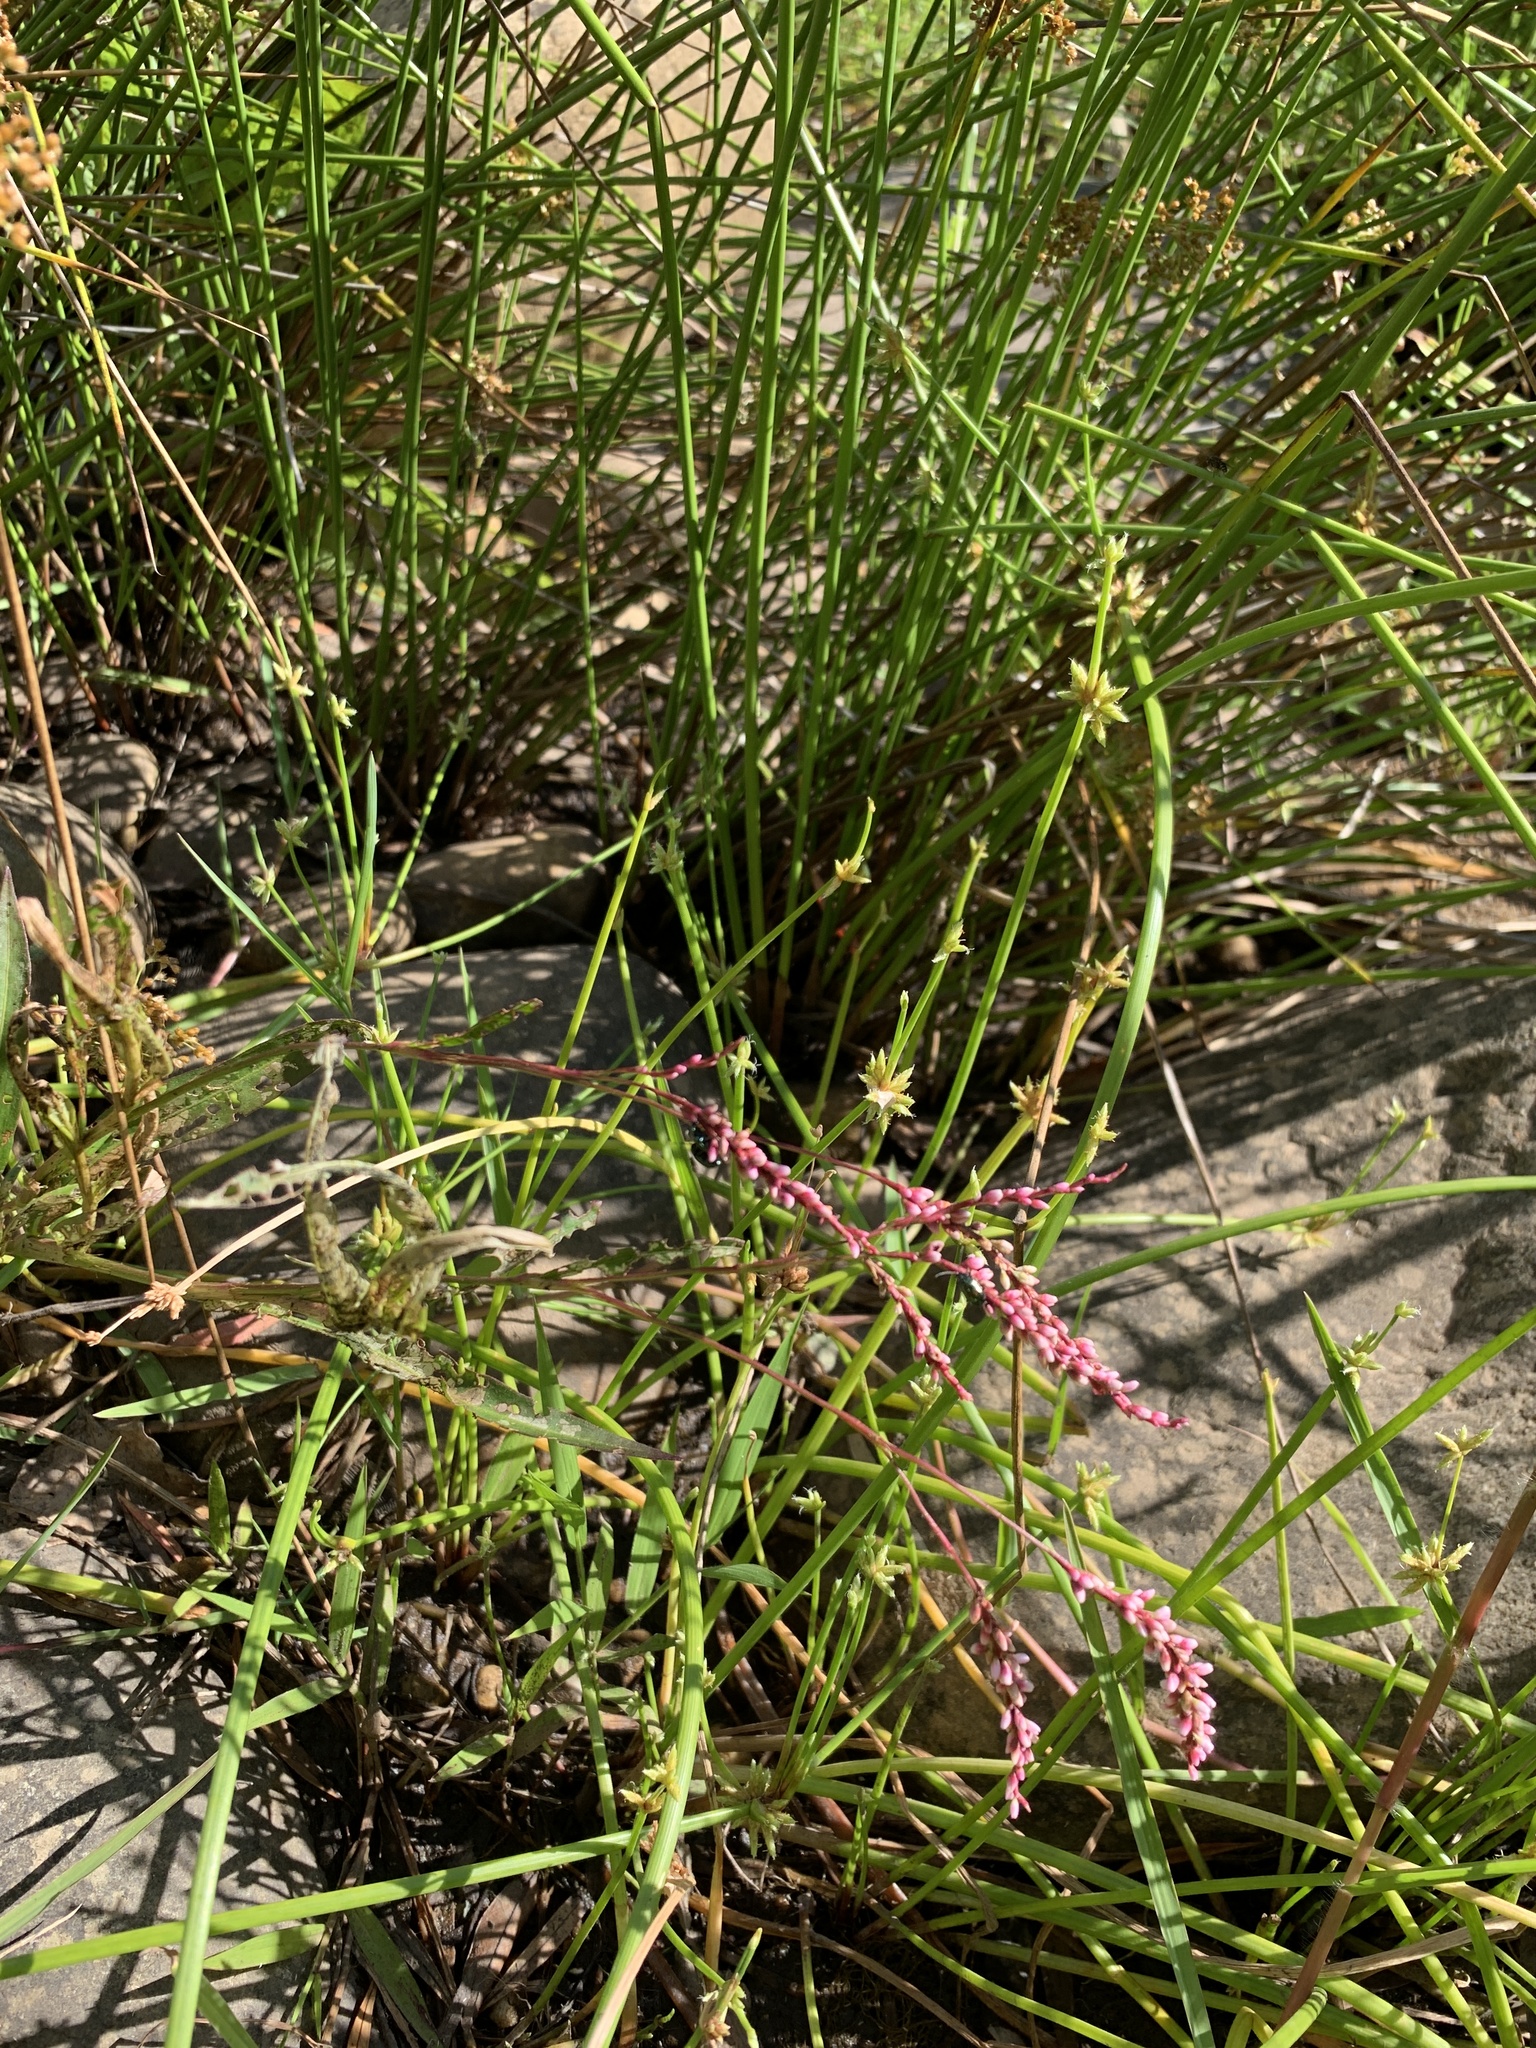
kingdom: Plantae
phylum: Tracheophyta
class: Magnoliopsida
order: Caryophyllales
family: Polygonaceae
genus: Persicaria
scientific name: Persicaria decipiens
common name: Willow-weed
